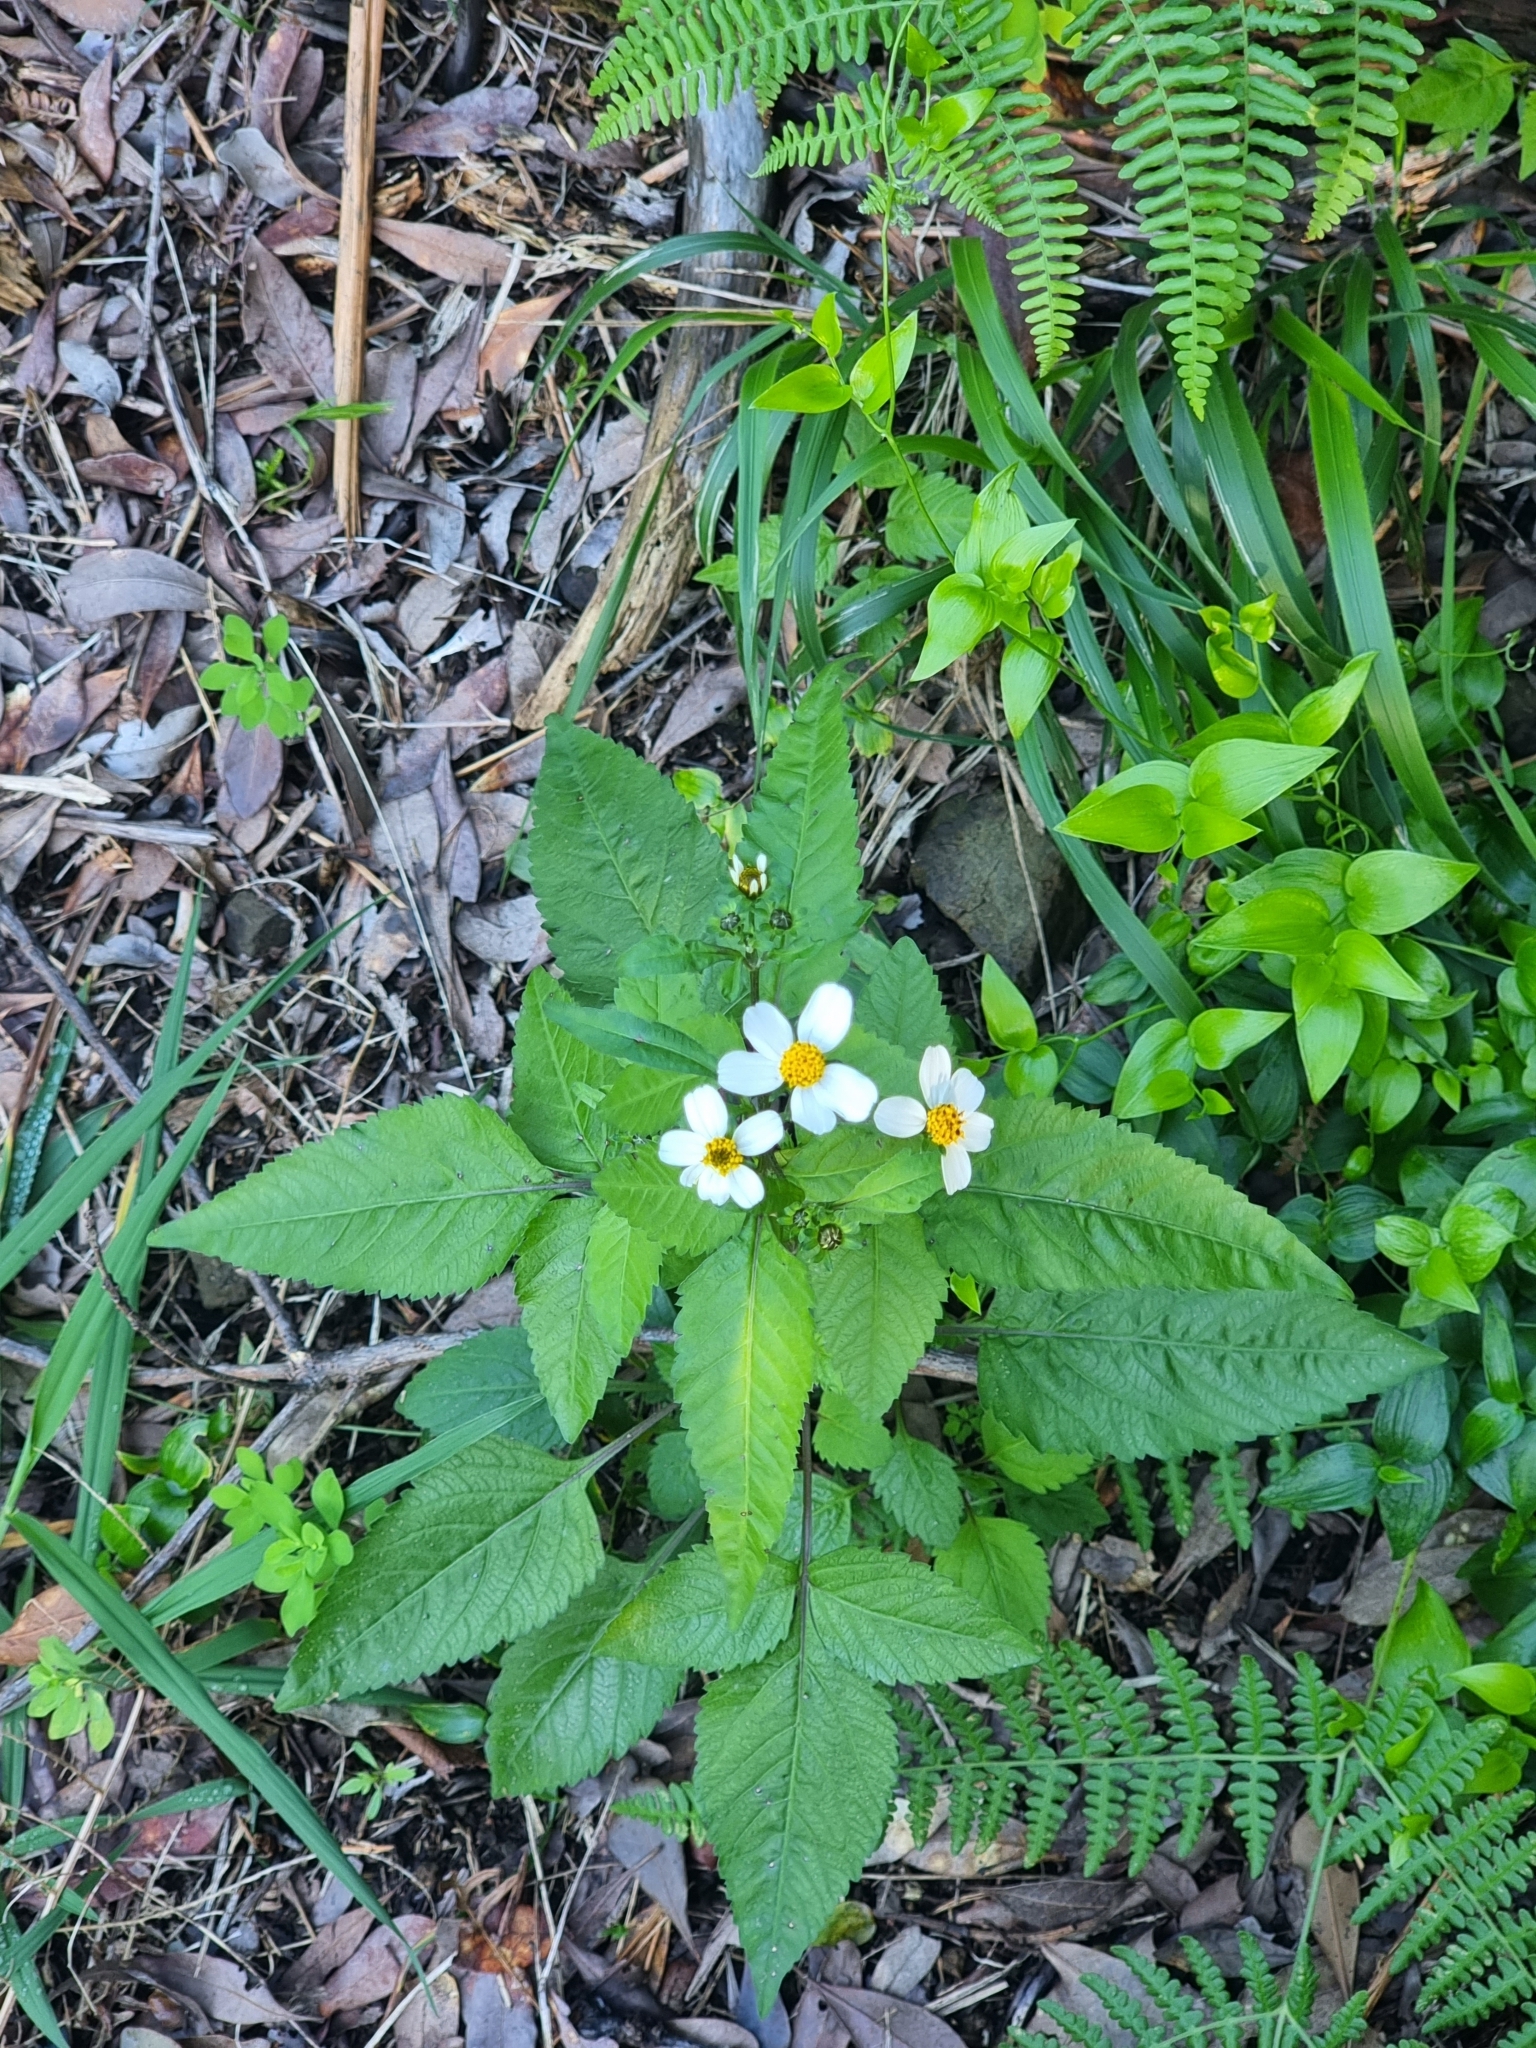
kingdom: Plantae
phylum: Tracheophyta
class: Magnoliopsida
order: Asterales
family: Asteraceae
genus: Bidens
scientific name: Bidens pilosa
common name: Black-jack
